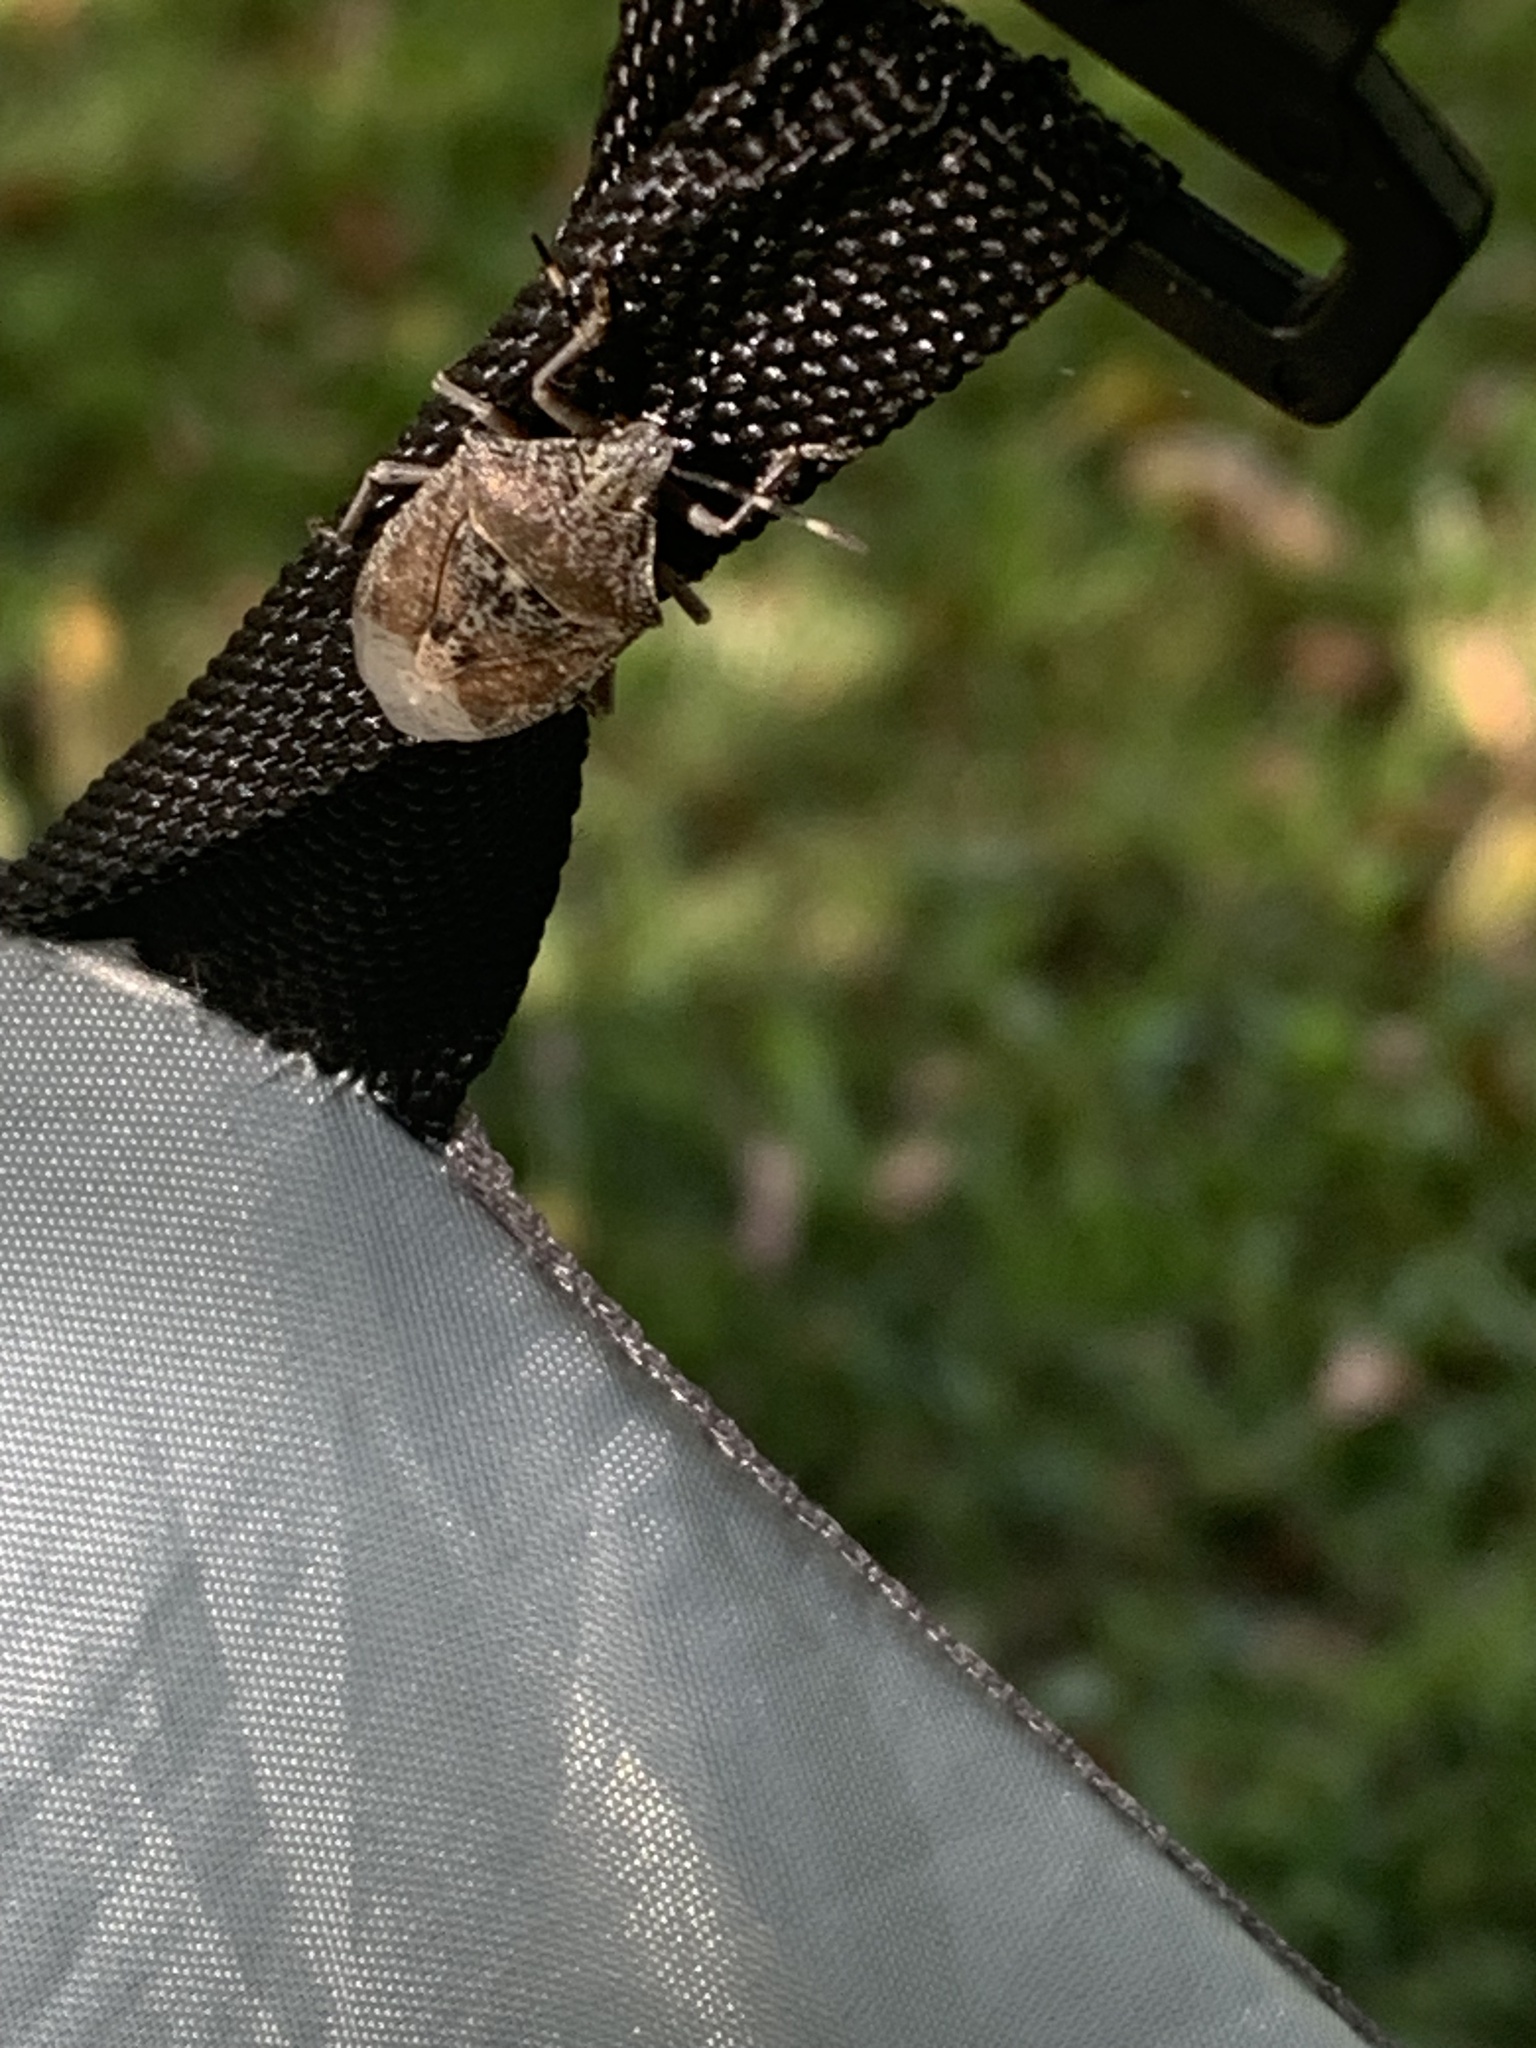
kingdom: Animalia
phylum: Arthropoda
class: Insecta
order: Hemiptera
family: Pentatomidae
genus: Rhaphigaster
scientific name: Rhaphigaster nebulosa
